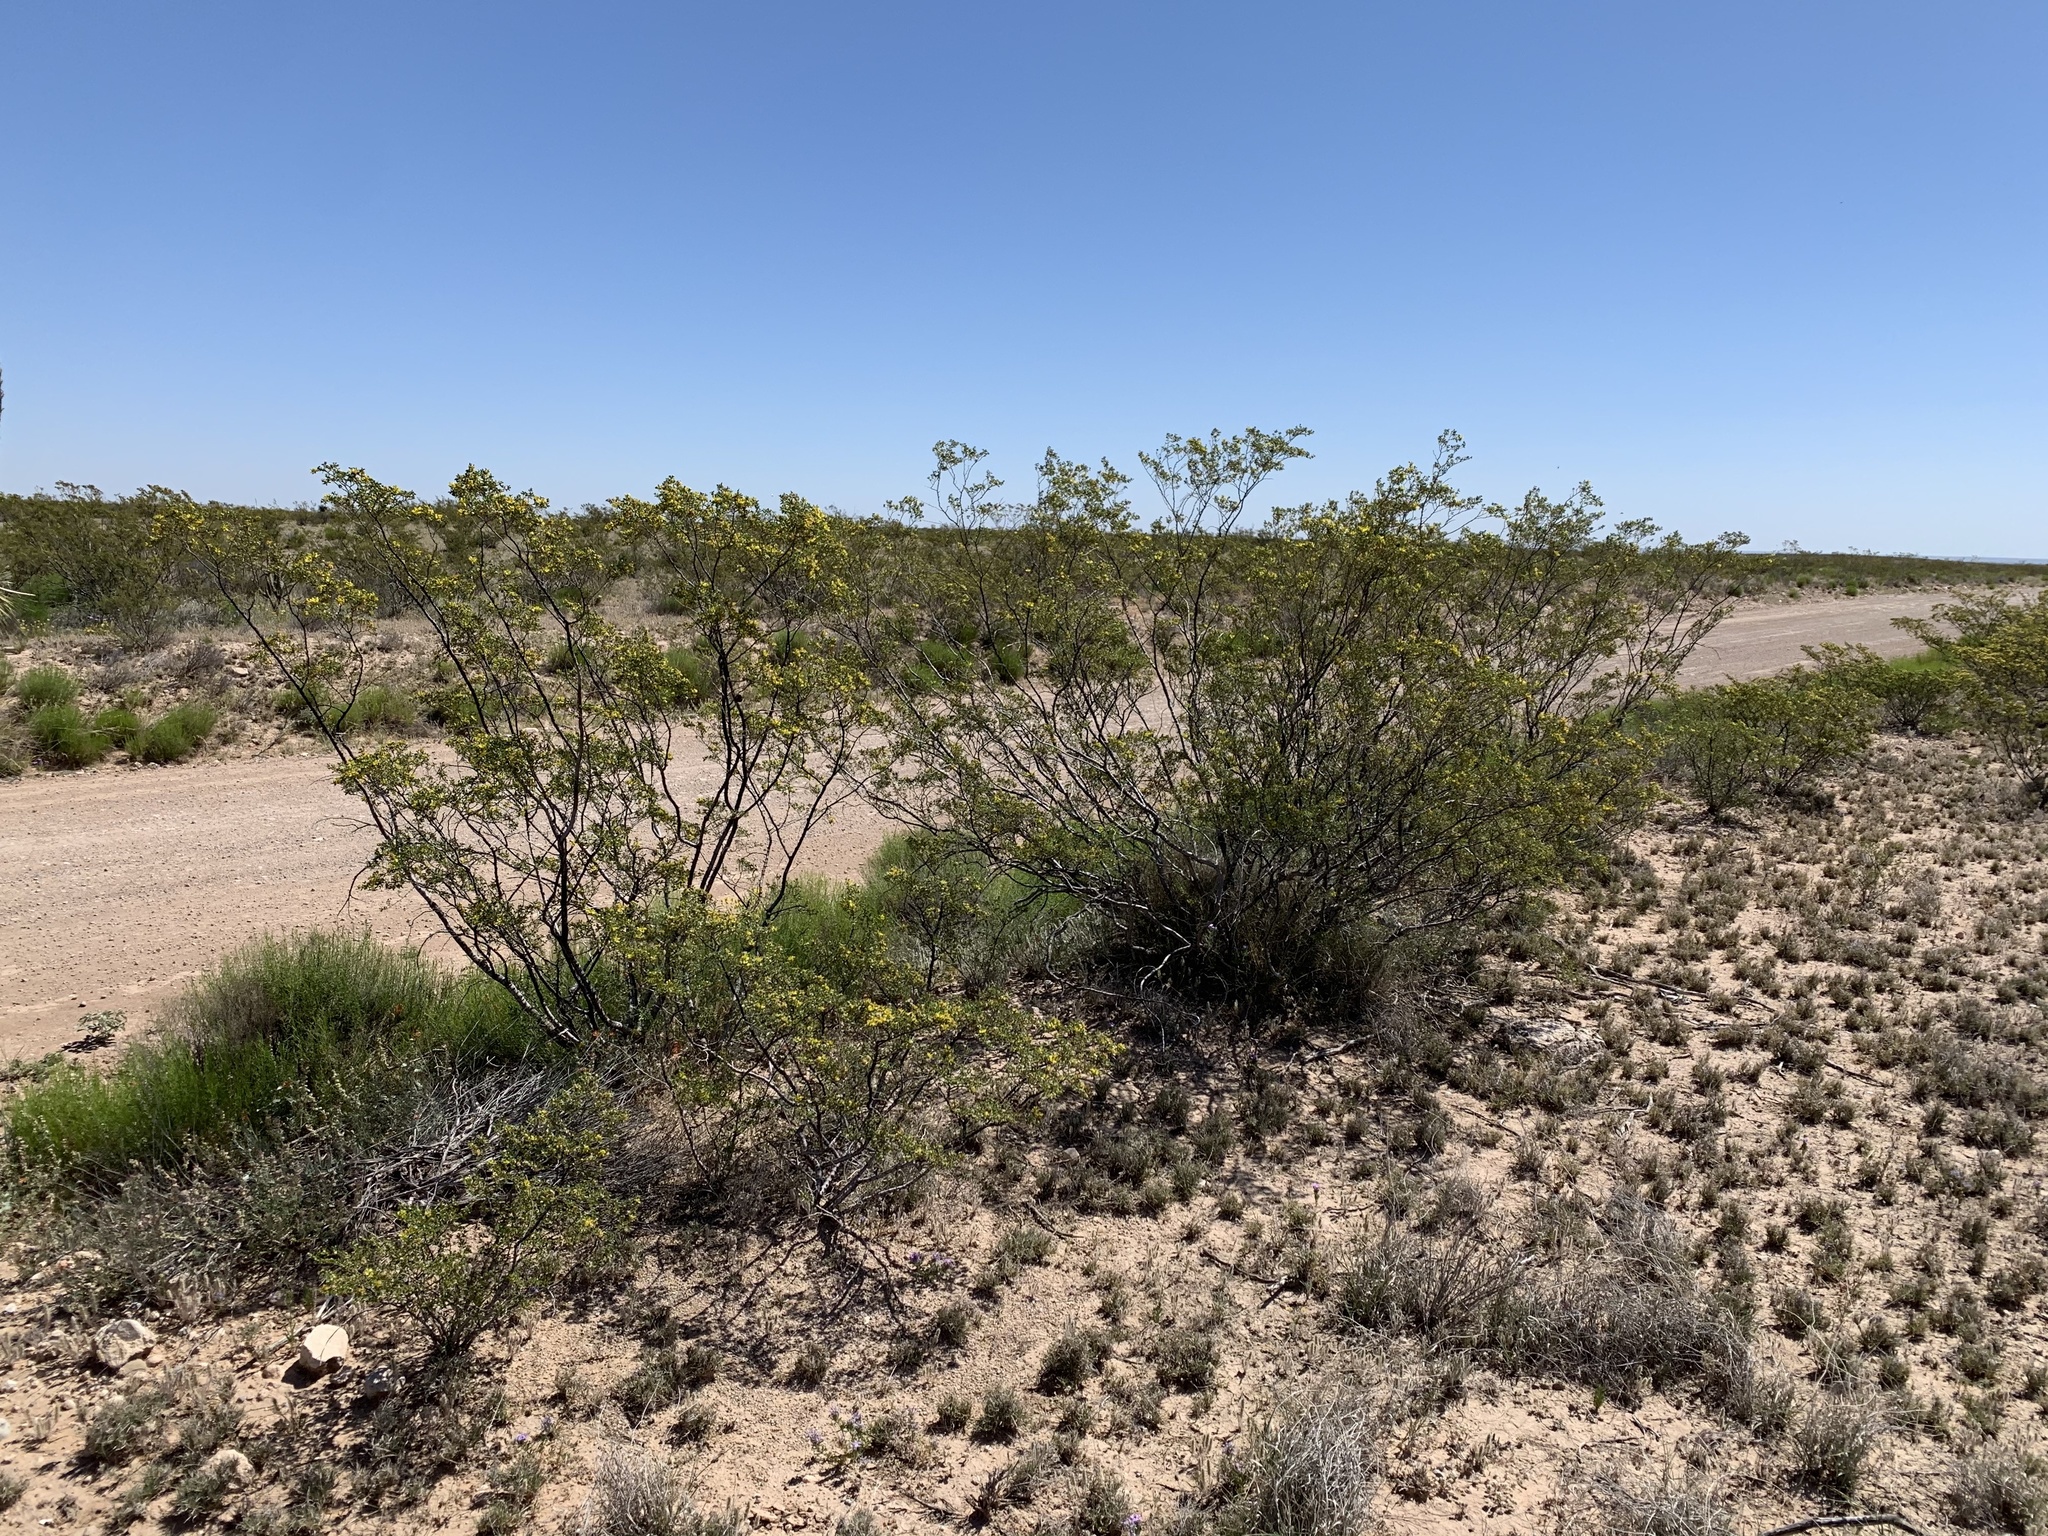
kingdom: Plantae
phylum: Tracheophyta
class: Magnoliopsida
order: Zygophyllales
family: Zygophyllaceae
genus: Larrea
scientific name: Larrea tridentata
